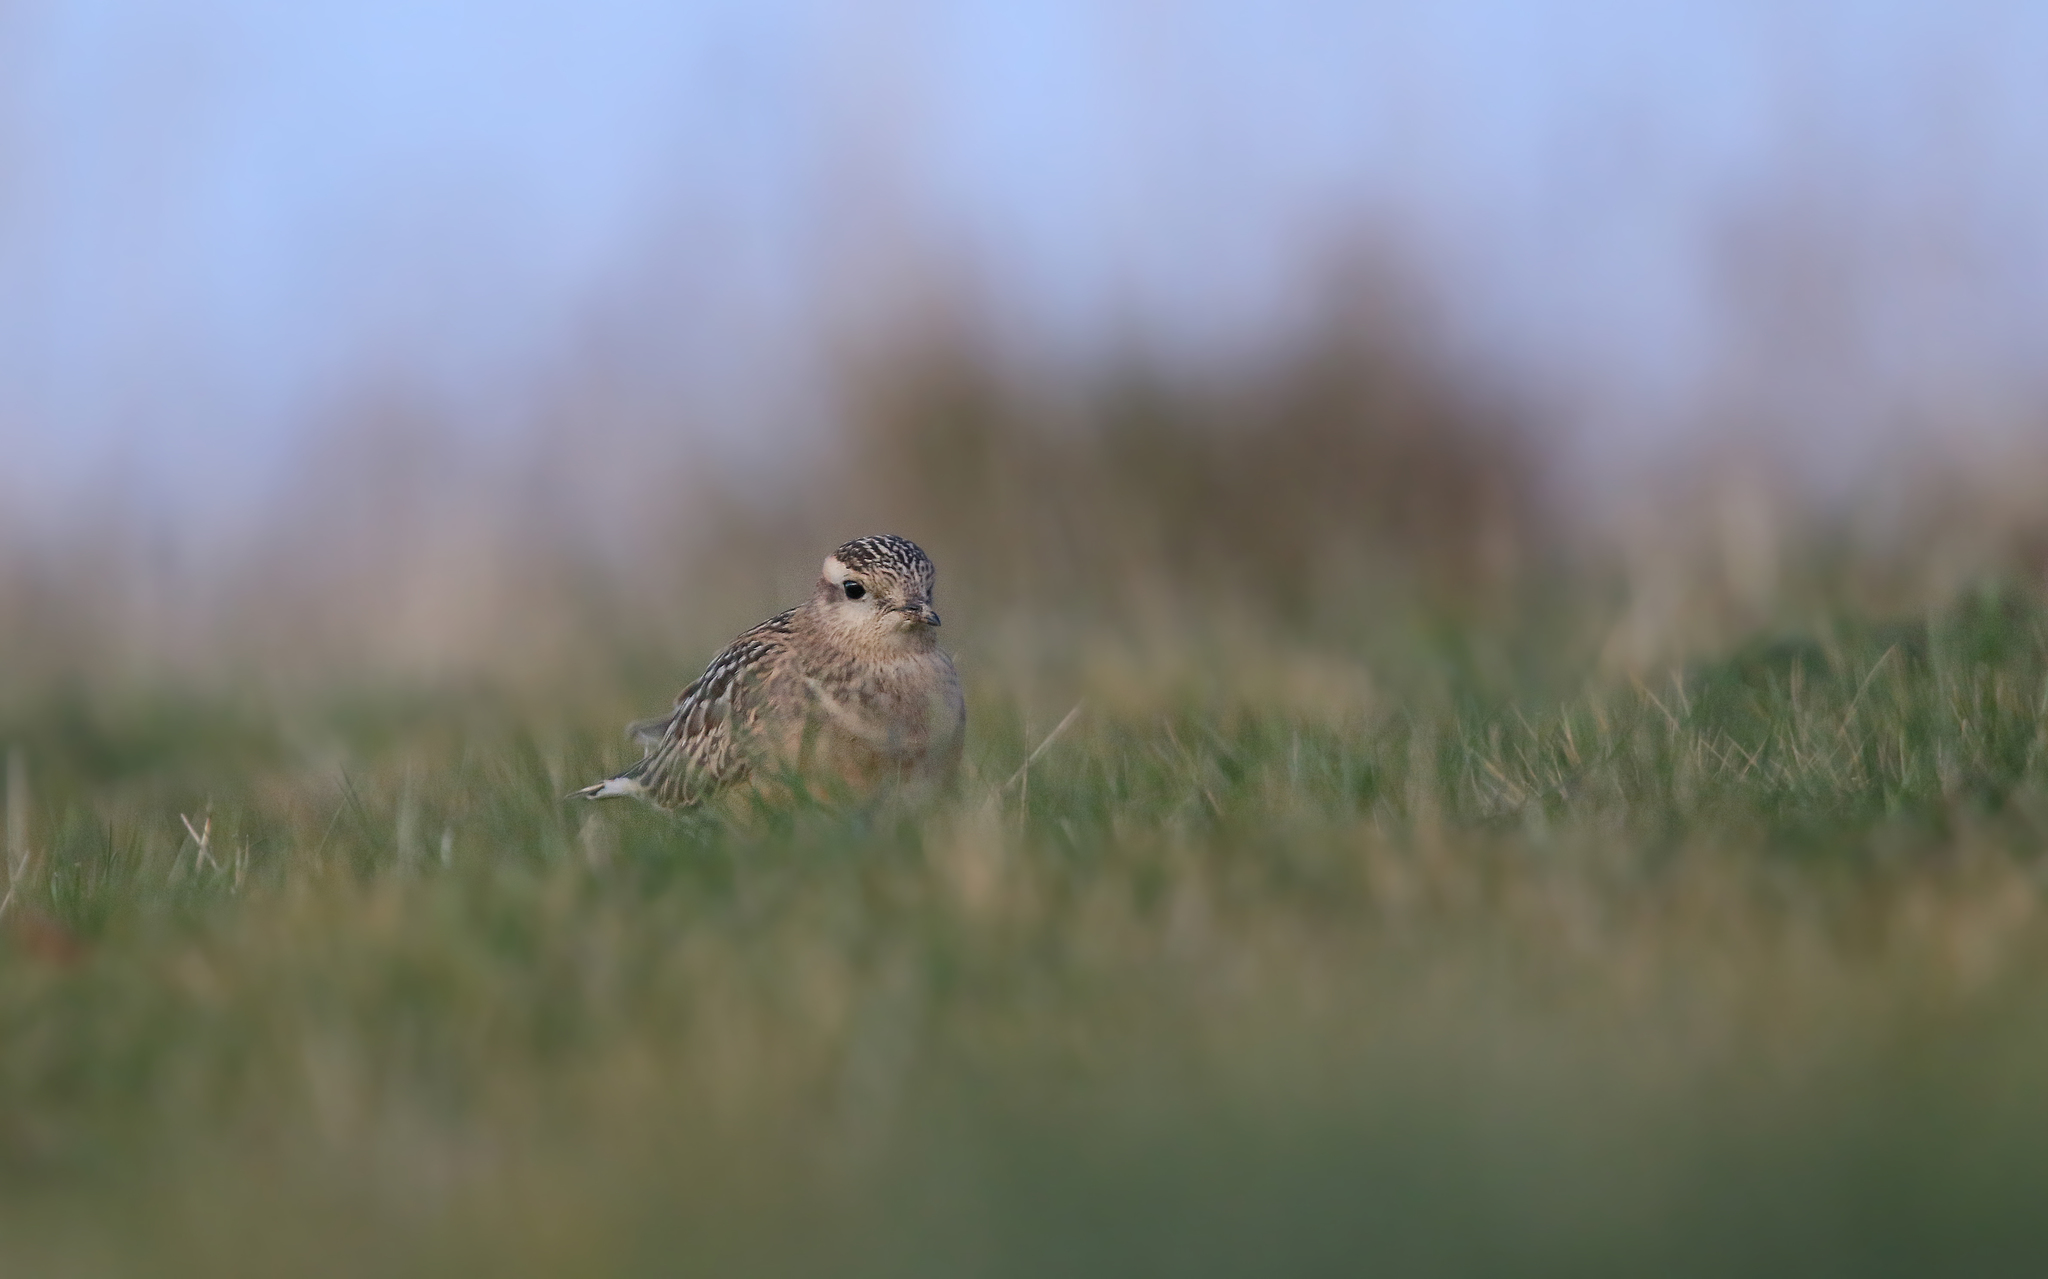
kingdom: Animalia
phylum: Chordata
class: Aves
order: Charadriiformes
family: Charadriidae
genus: Charadrius
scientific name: Charadrius morinellus
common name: Eurasian dotterel
